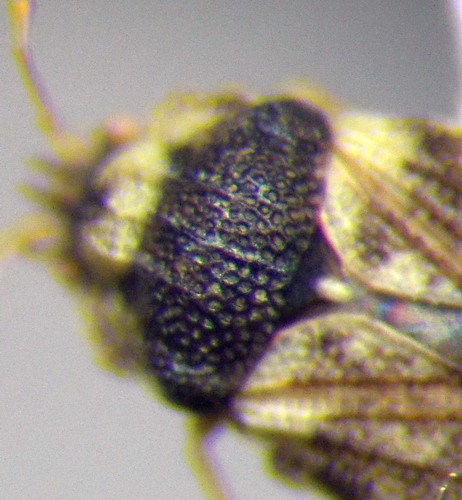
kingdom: Animalia
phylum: Arthropoda
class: Insecta
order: Hemiptera
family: Piesmatidae
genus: Parapiesma
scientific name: Parapiesma salsolae
